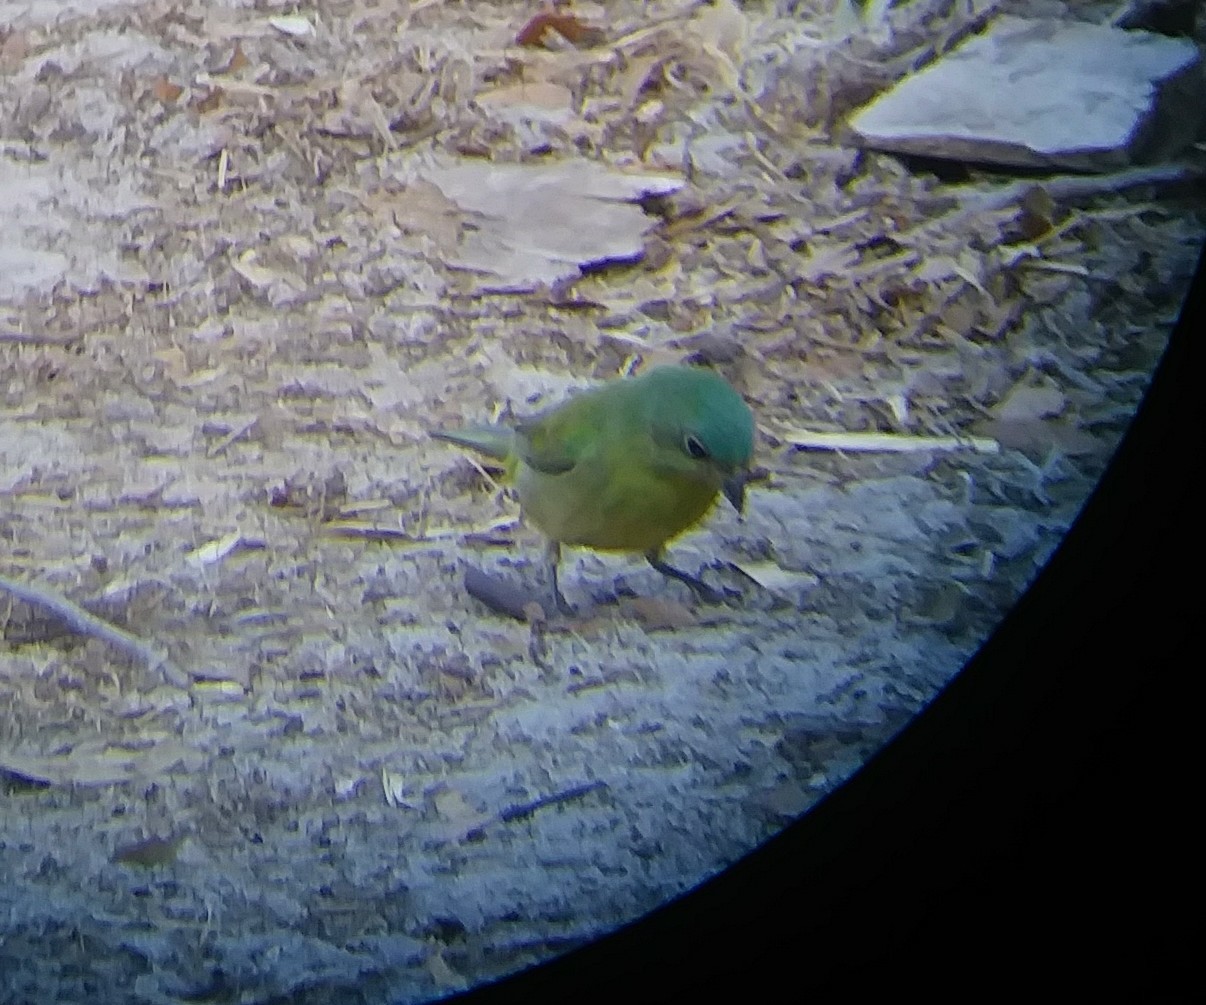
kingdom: Animalia
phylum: Chordata
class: Aves
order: Passeriformes
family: Cardinalidae
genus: Passerina
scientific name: Passerina ciris
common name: Painted bunting
